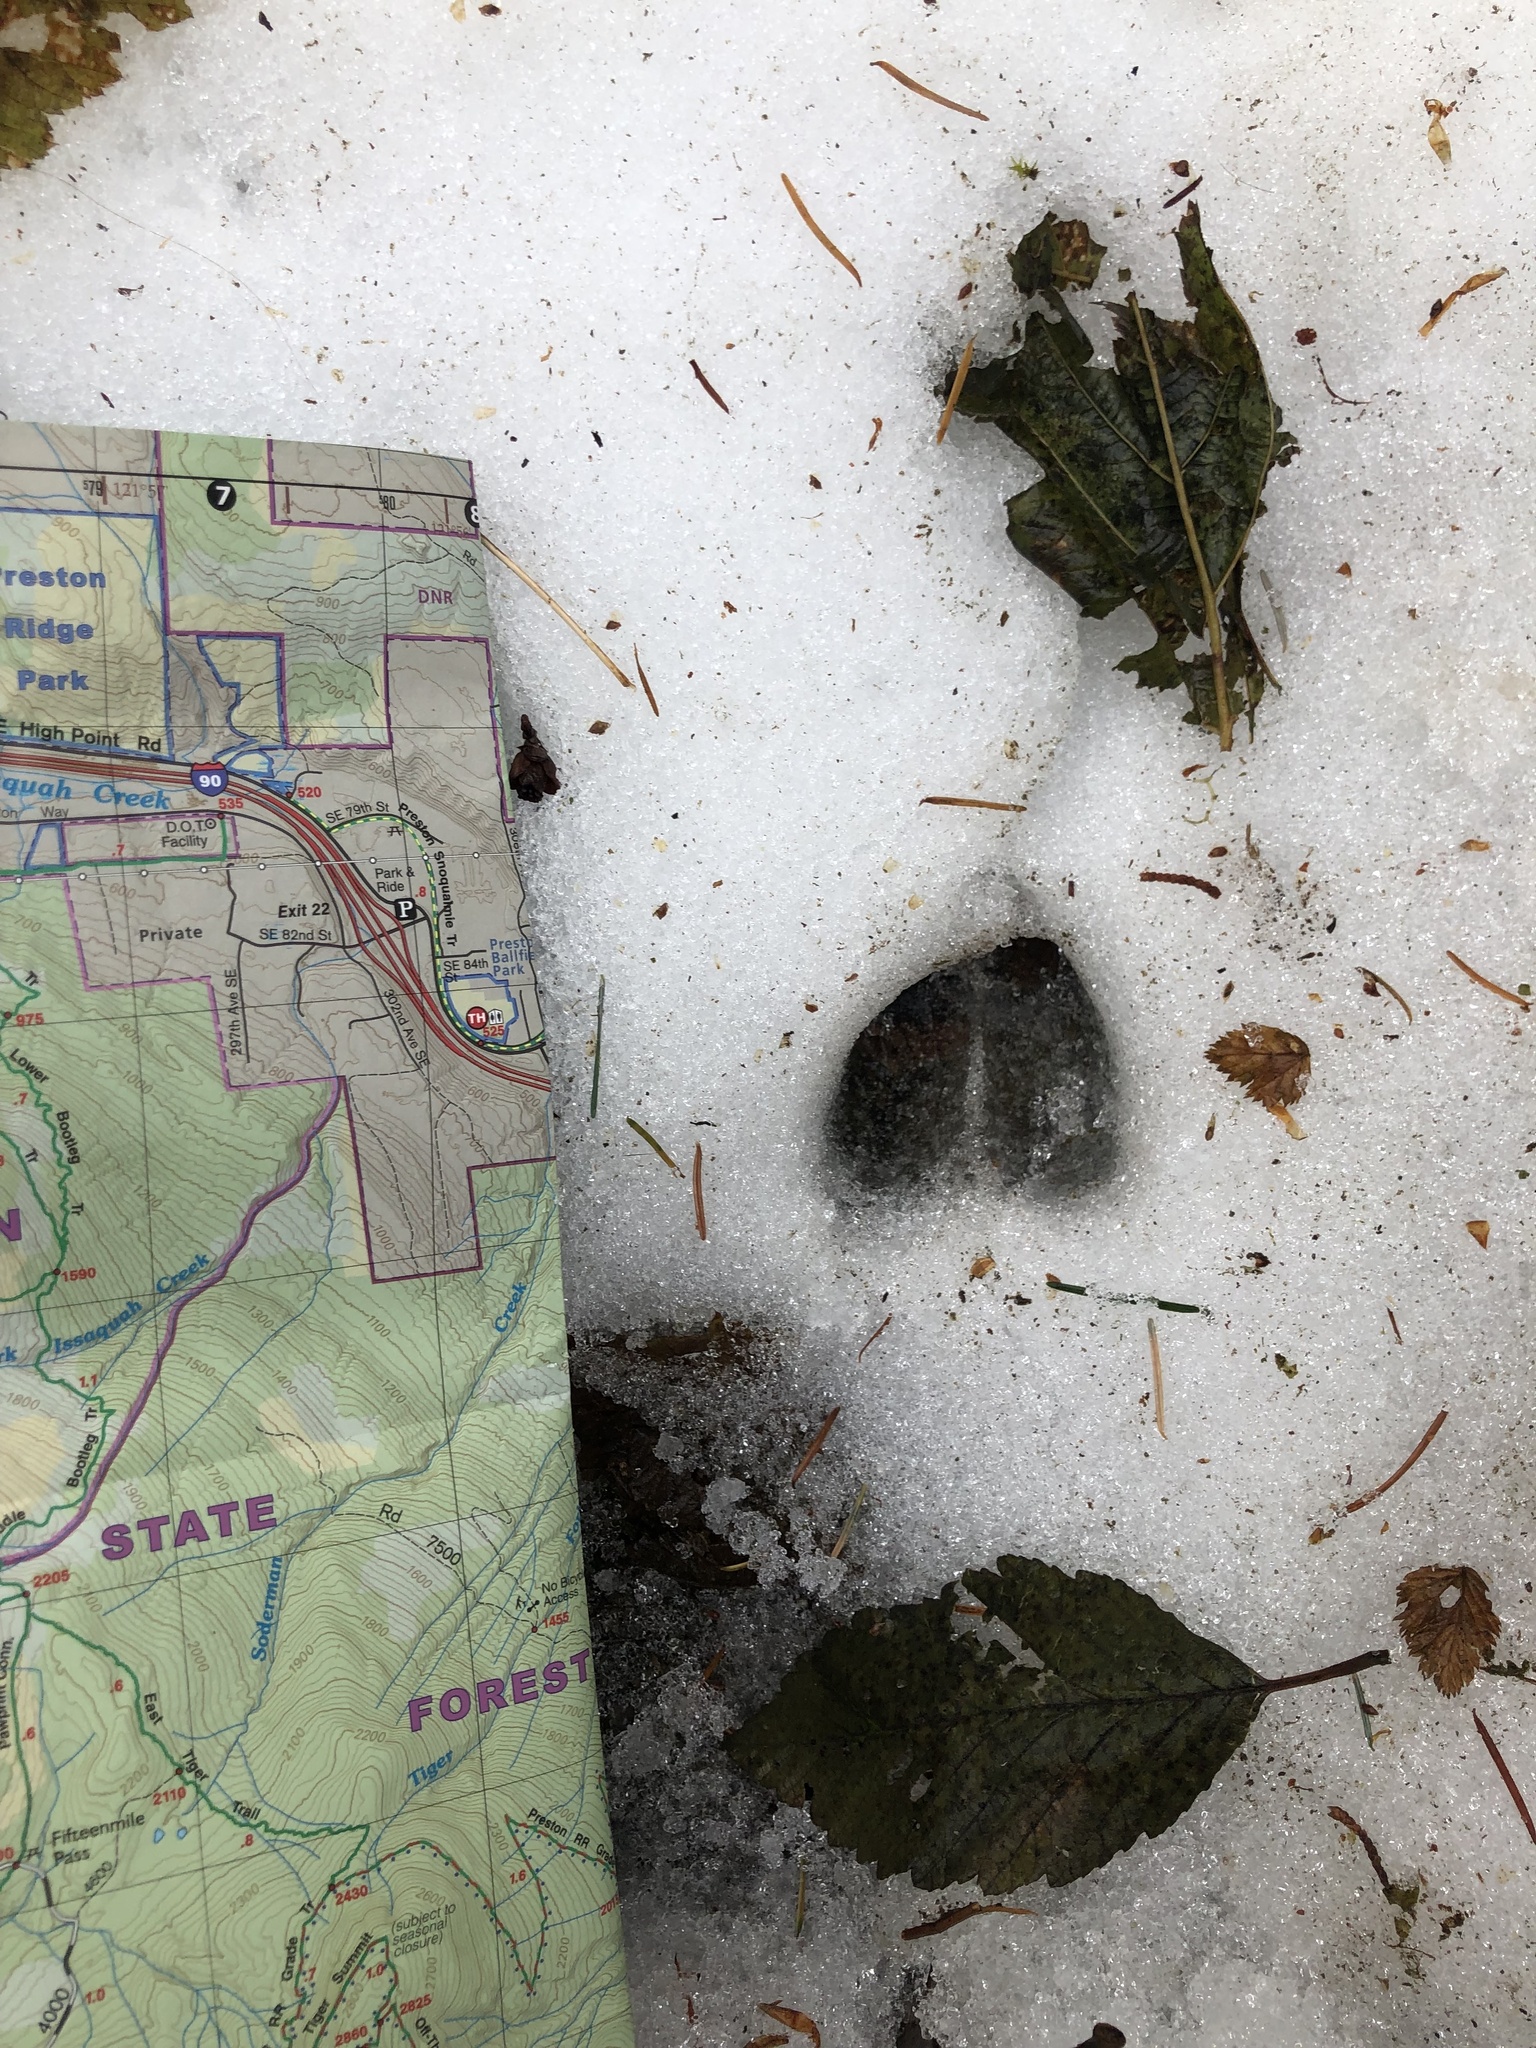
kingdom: Animalia
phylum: Chordata
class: Mammalia
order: Artiodactyla
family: Cervidae
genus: Odocoileus
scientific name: Odocoileus hemionus
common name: Mule deer
